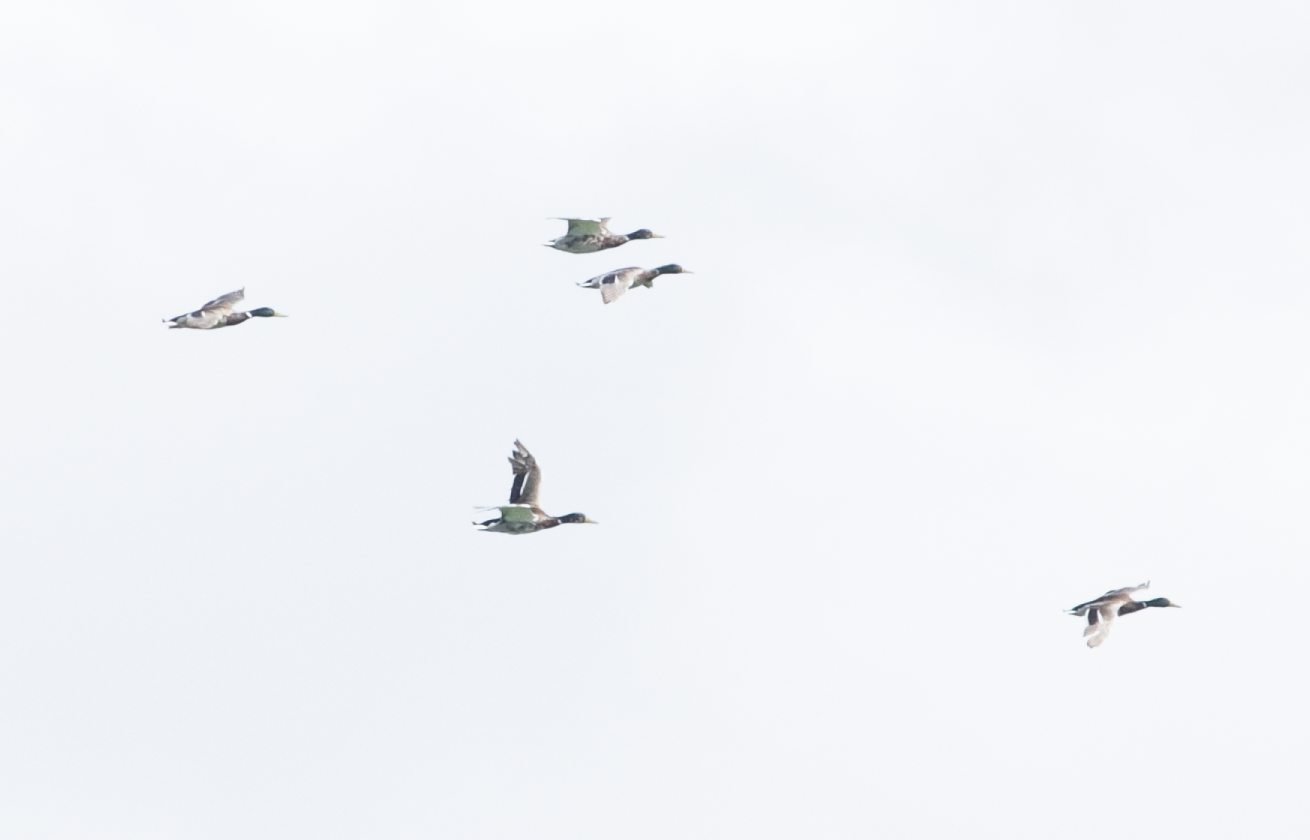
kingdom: Animalia
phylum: Chordata
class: Aves
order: Anseriformes
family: Anatidae
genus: Anas
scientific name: Anas platyrhynchos
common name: Mallard
